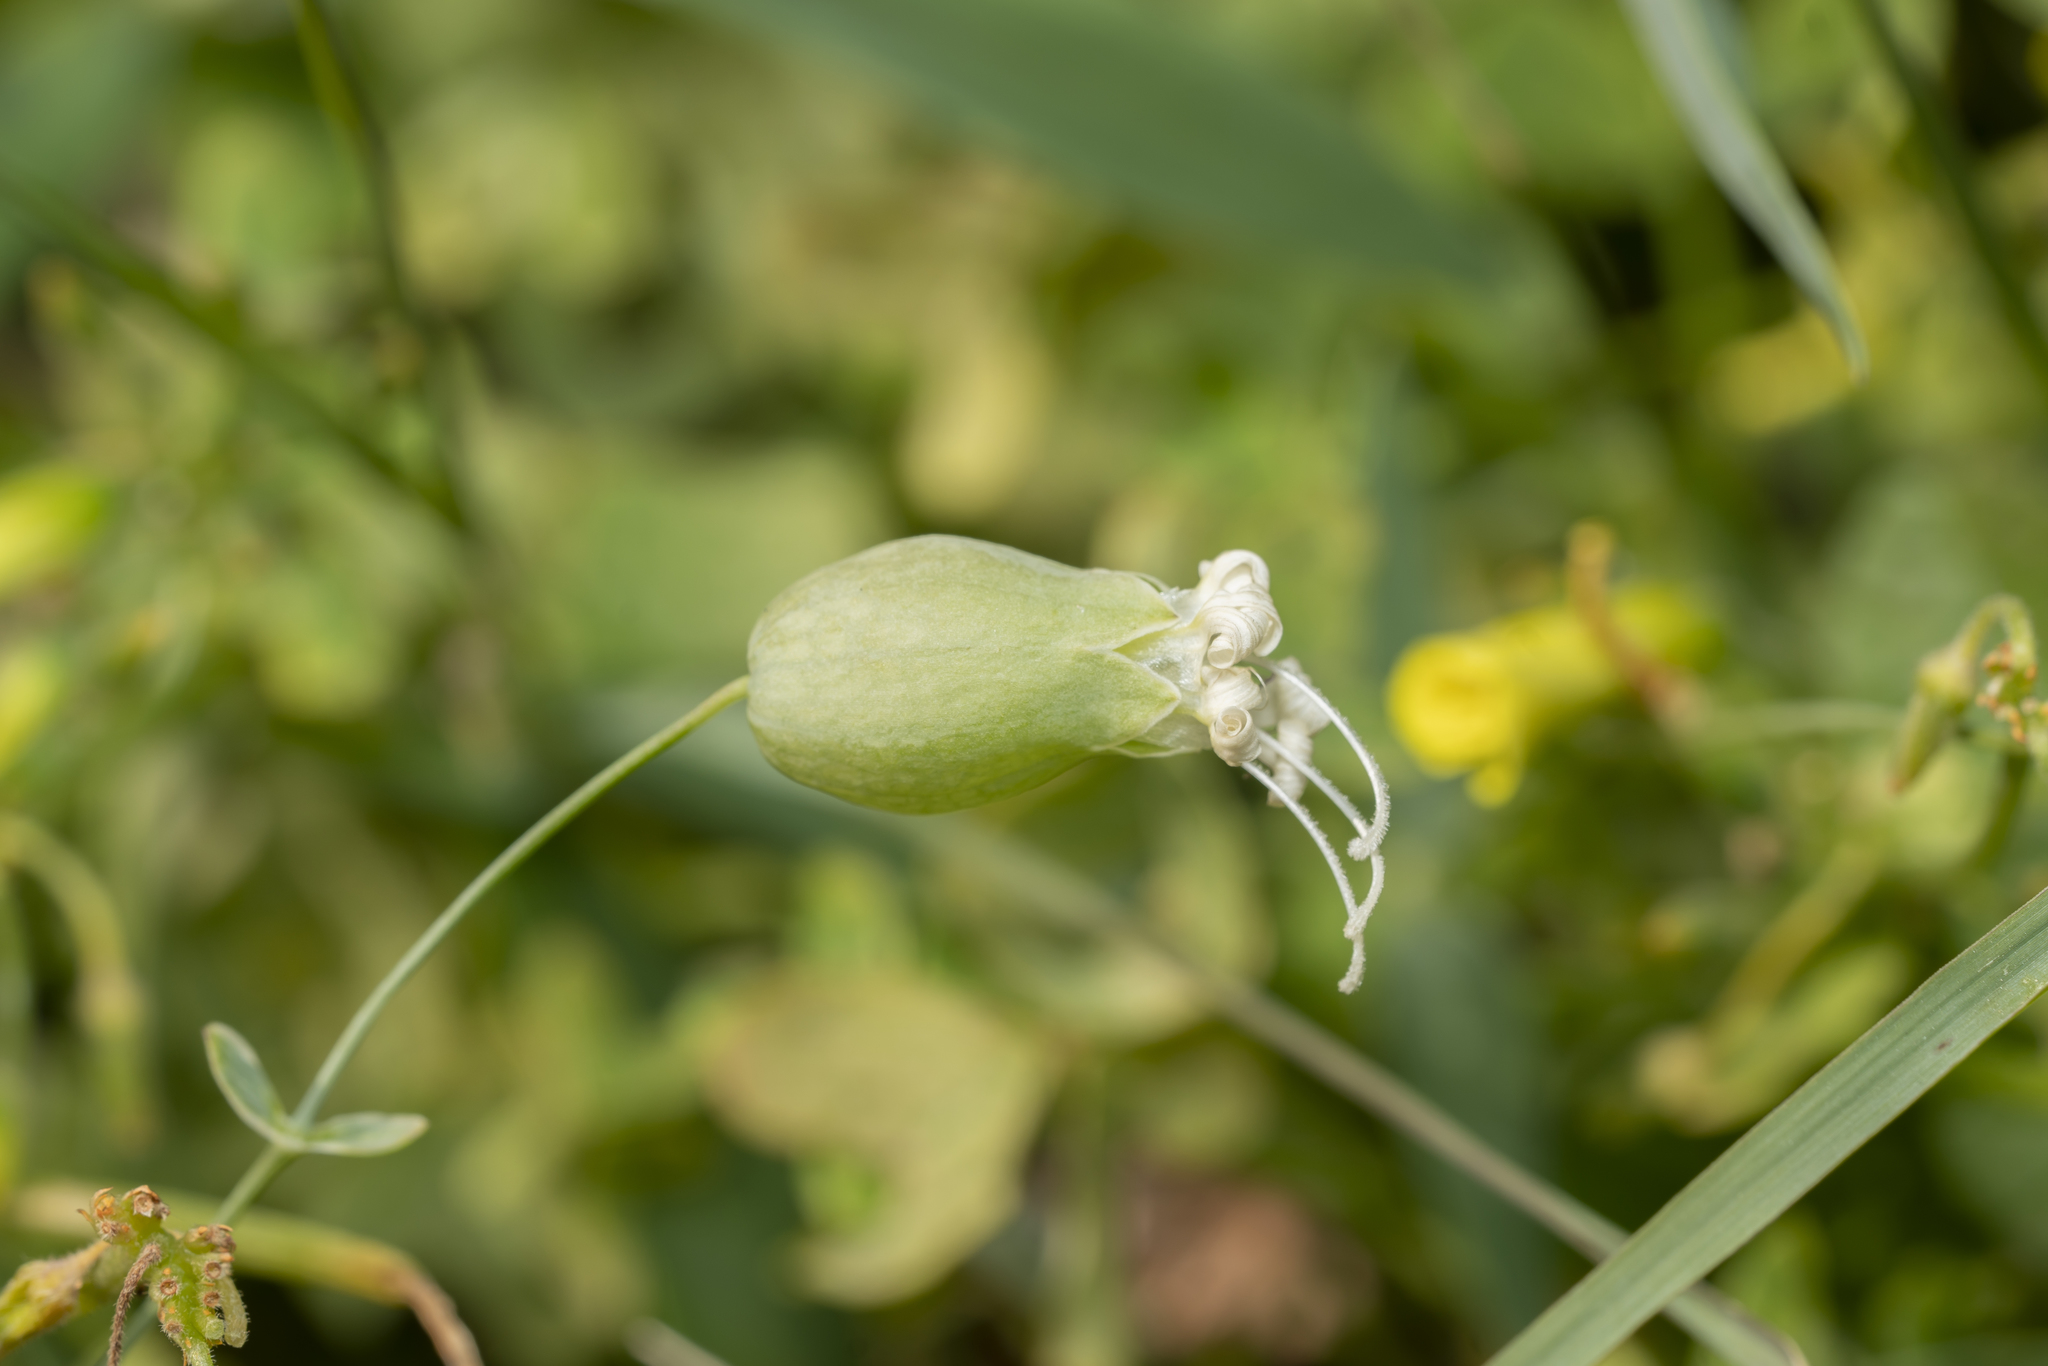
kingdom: Plantae
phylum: Tracheophyta
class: Magnoliopsida
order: Caryophyllales
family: Caryophyllaceae
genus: Silene
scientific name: Silene vulgaris
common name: Bladder campion
